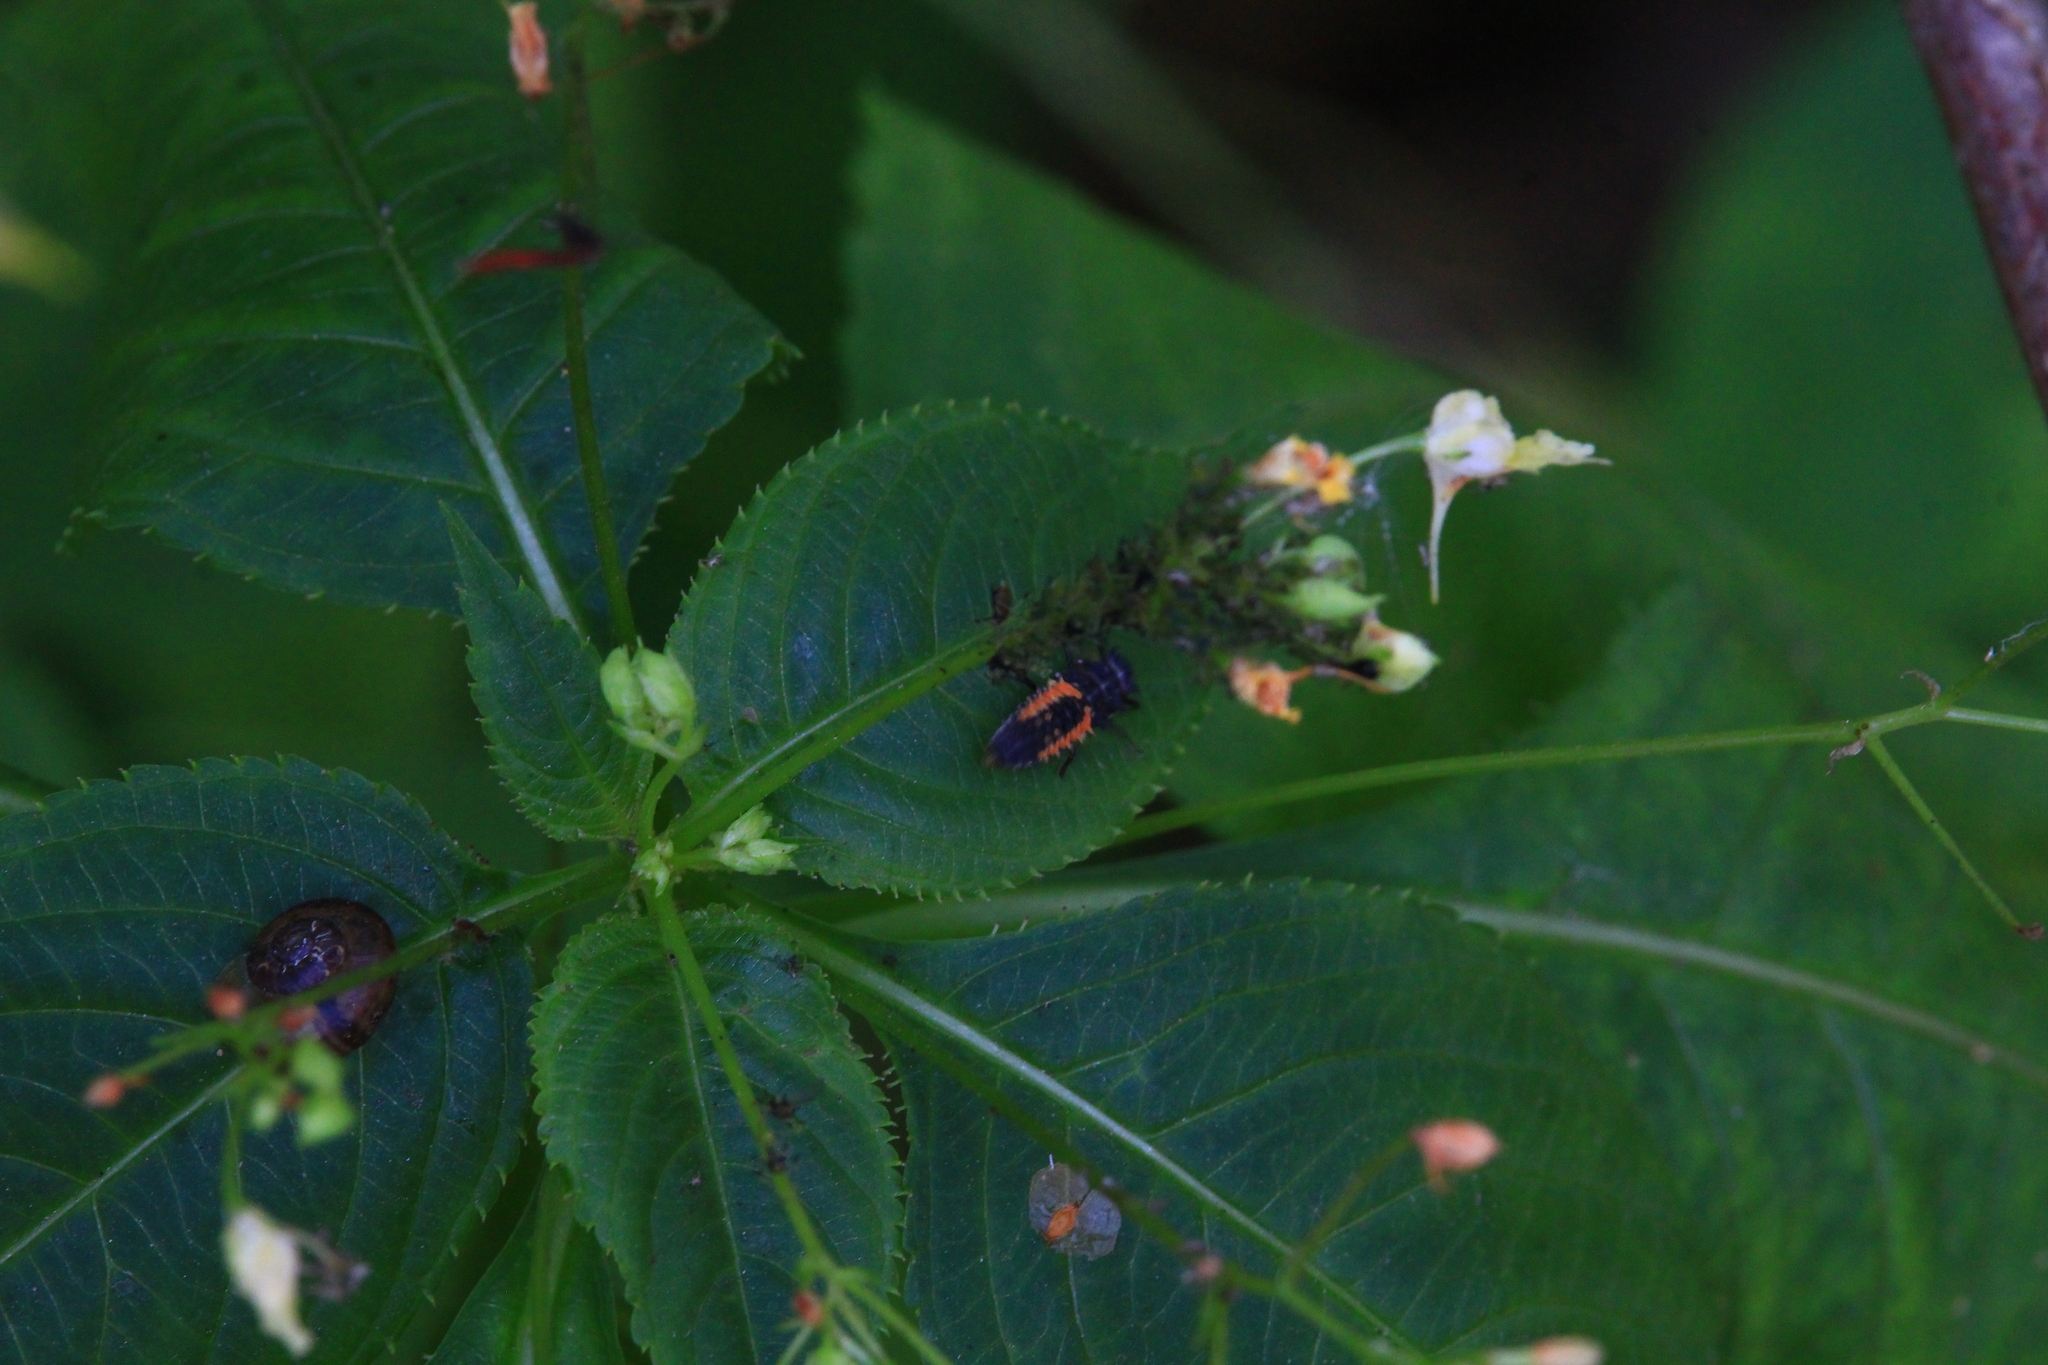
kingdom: Animalia
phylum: Arthropoda
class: Insecta
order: Coleoptera
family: Coccinellidae
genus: Harmonia
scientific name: Harmonia axyridis
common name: Harlequin ladybird
